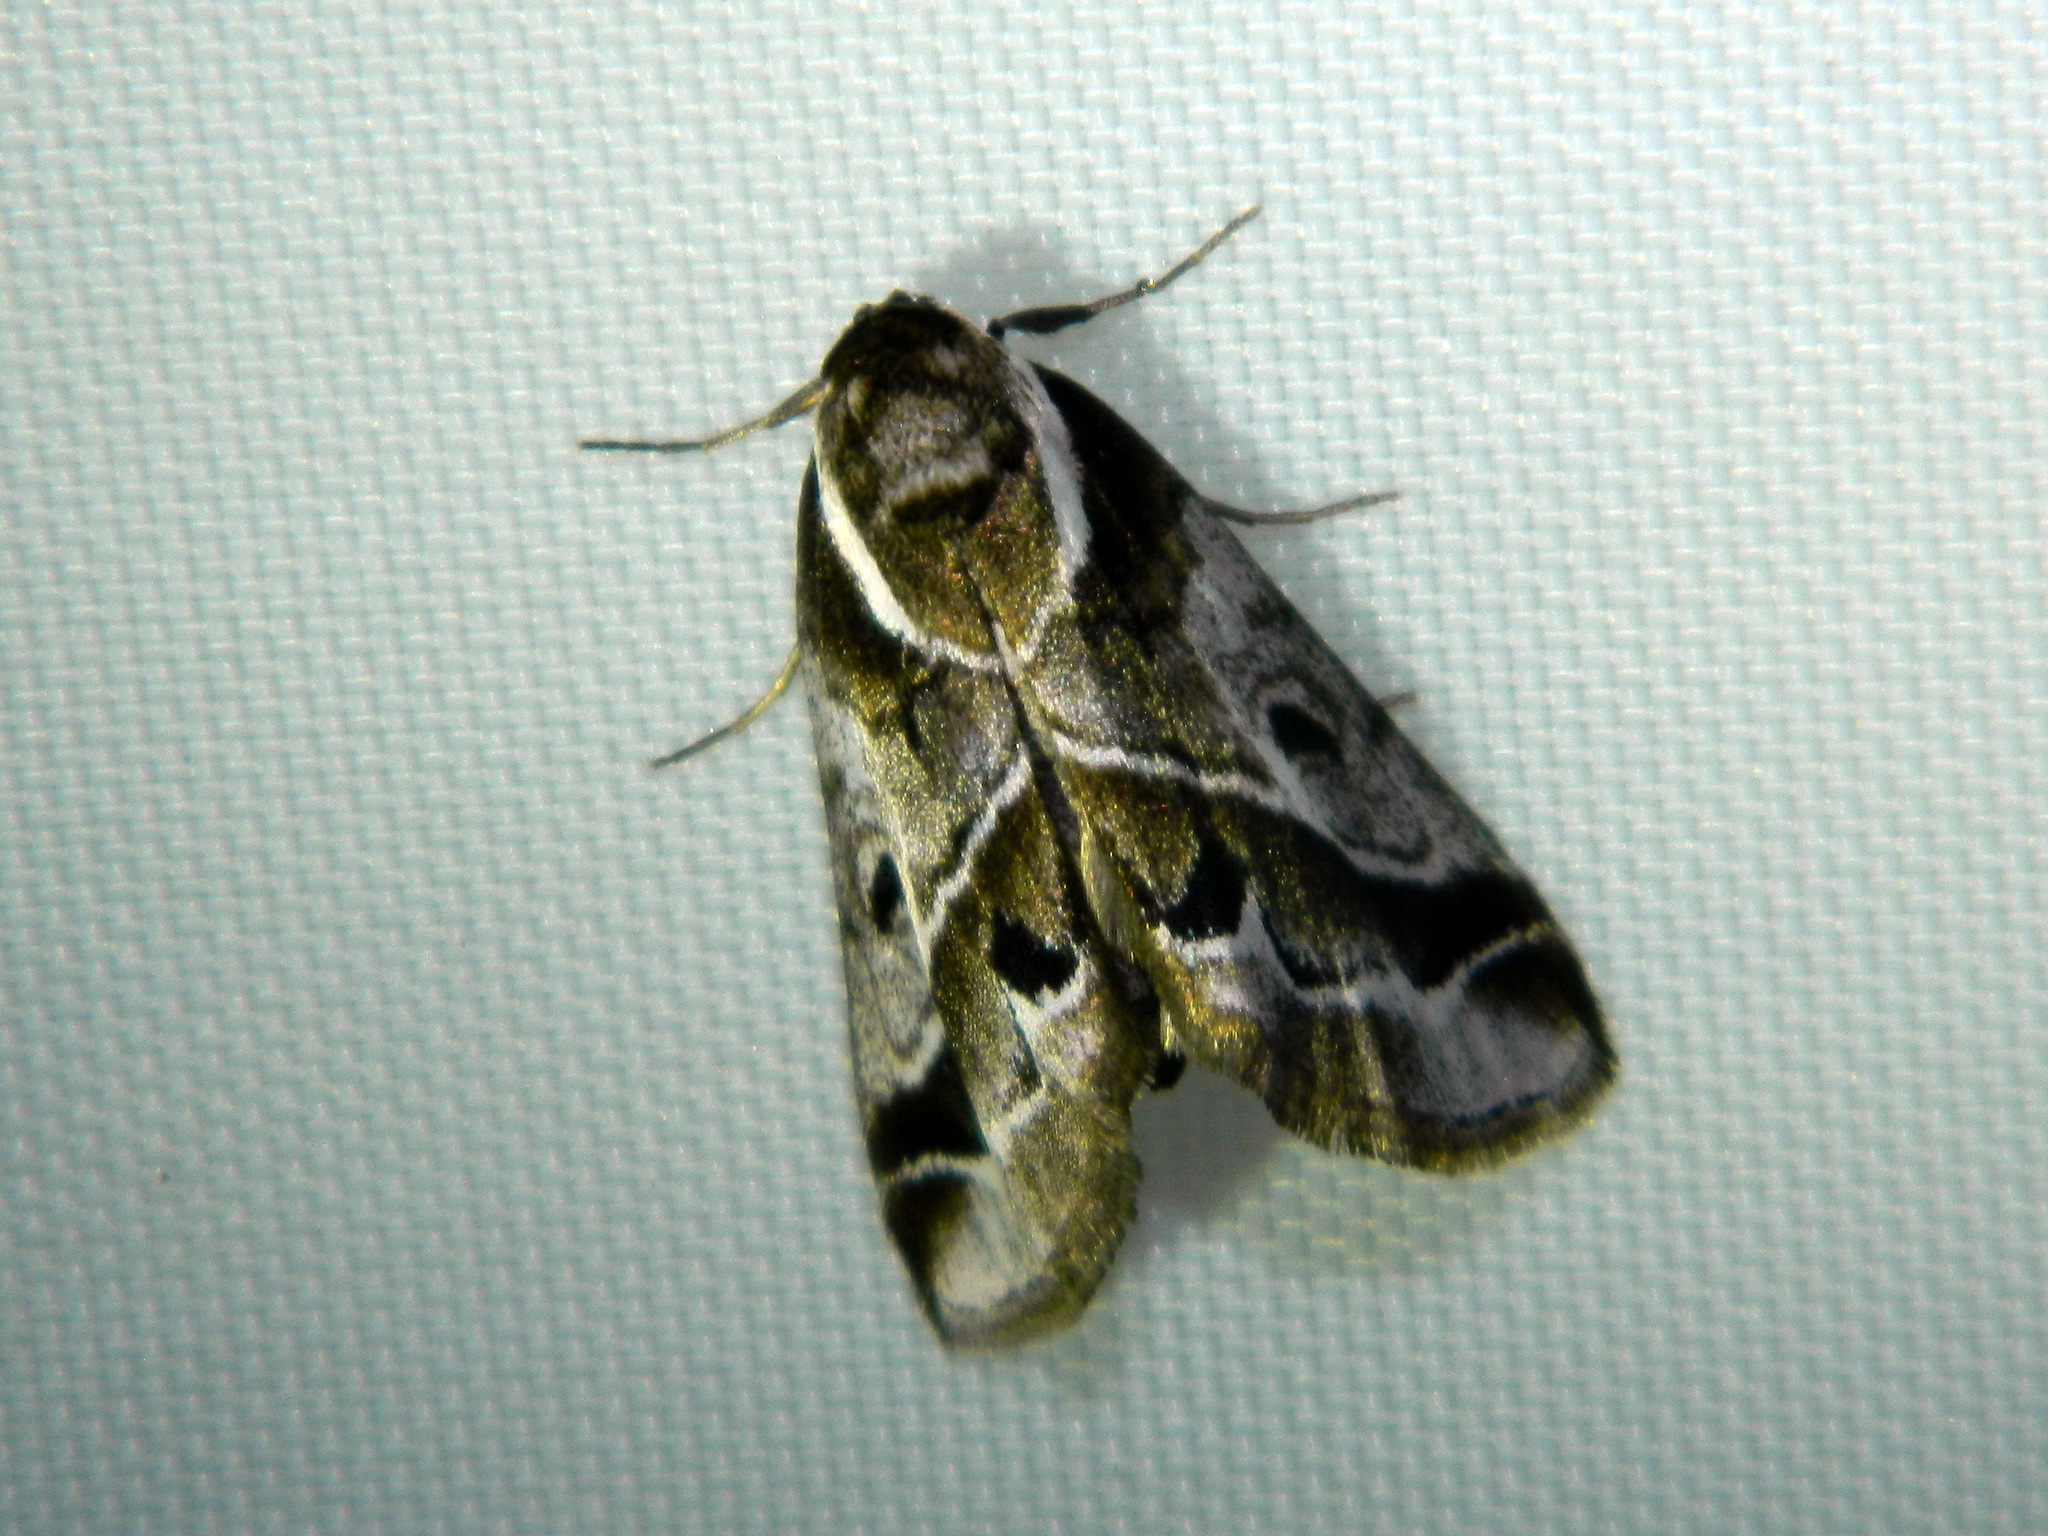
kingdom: Animalia
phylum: Arthropoda
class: Insecta
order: Lepidoptera
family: Nolidae
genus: Baileya
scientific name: Baileya doubledayi
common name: Doubleday's baileya moth
